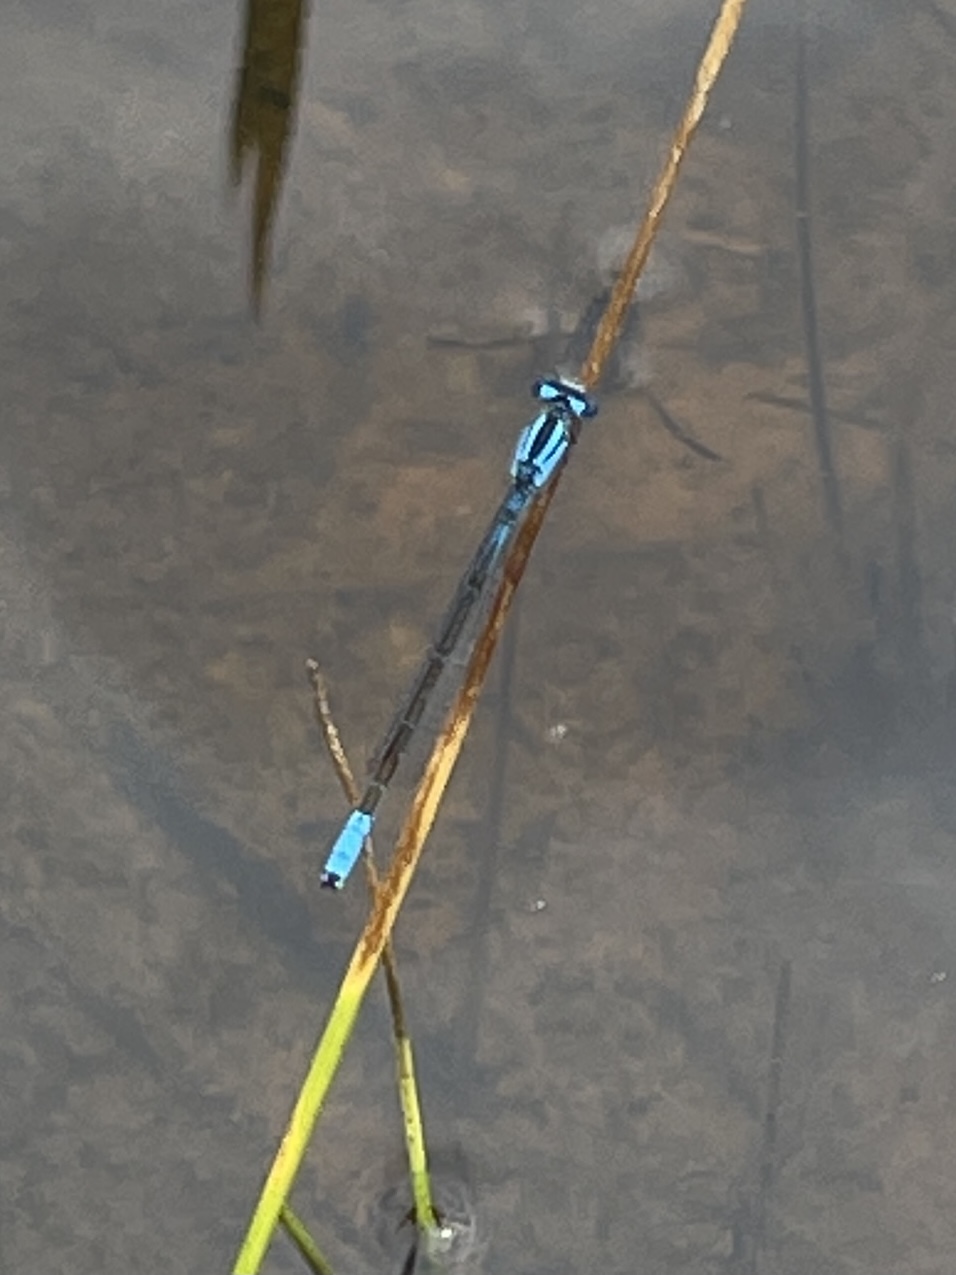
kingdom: Animalia
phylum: Arthropoda
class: Insecta
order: Odonata
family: Coenagrionidae
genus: Enallagma
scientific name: Enallagma aspersum
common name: Azure bluet
